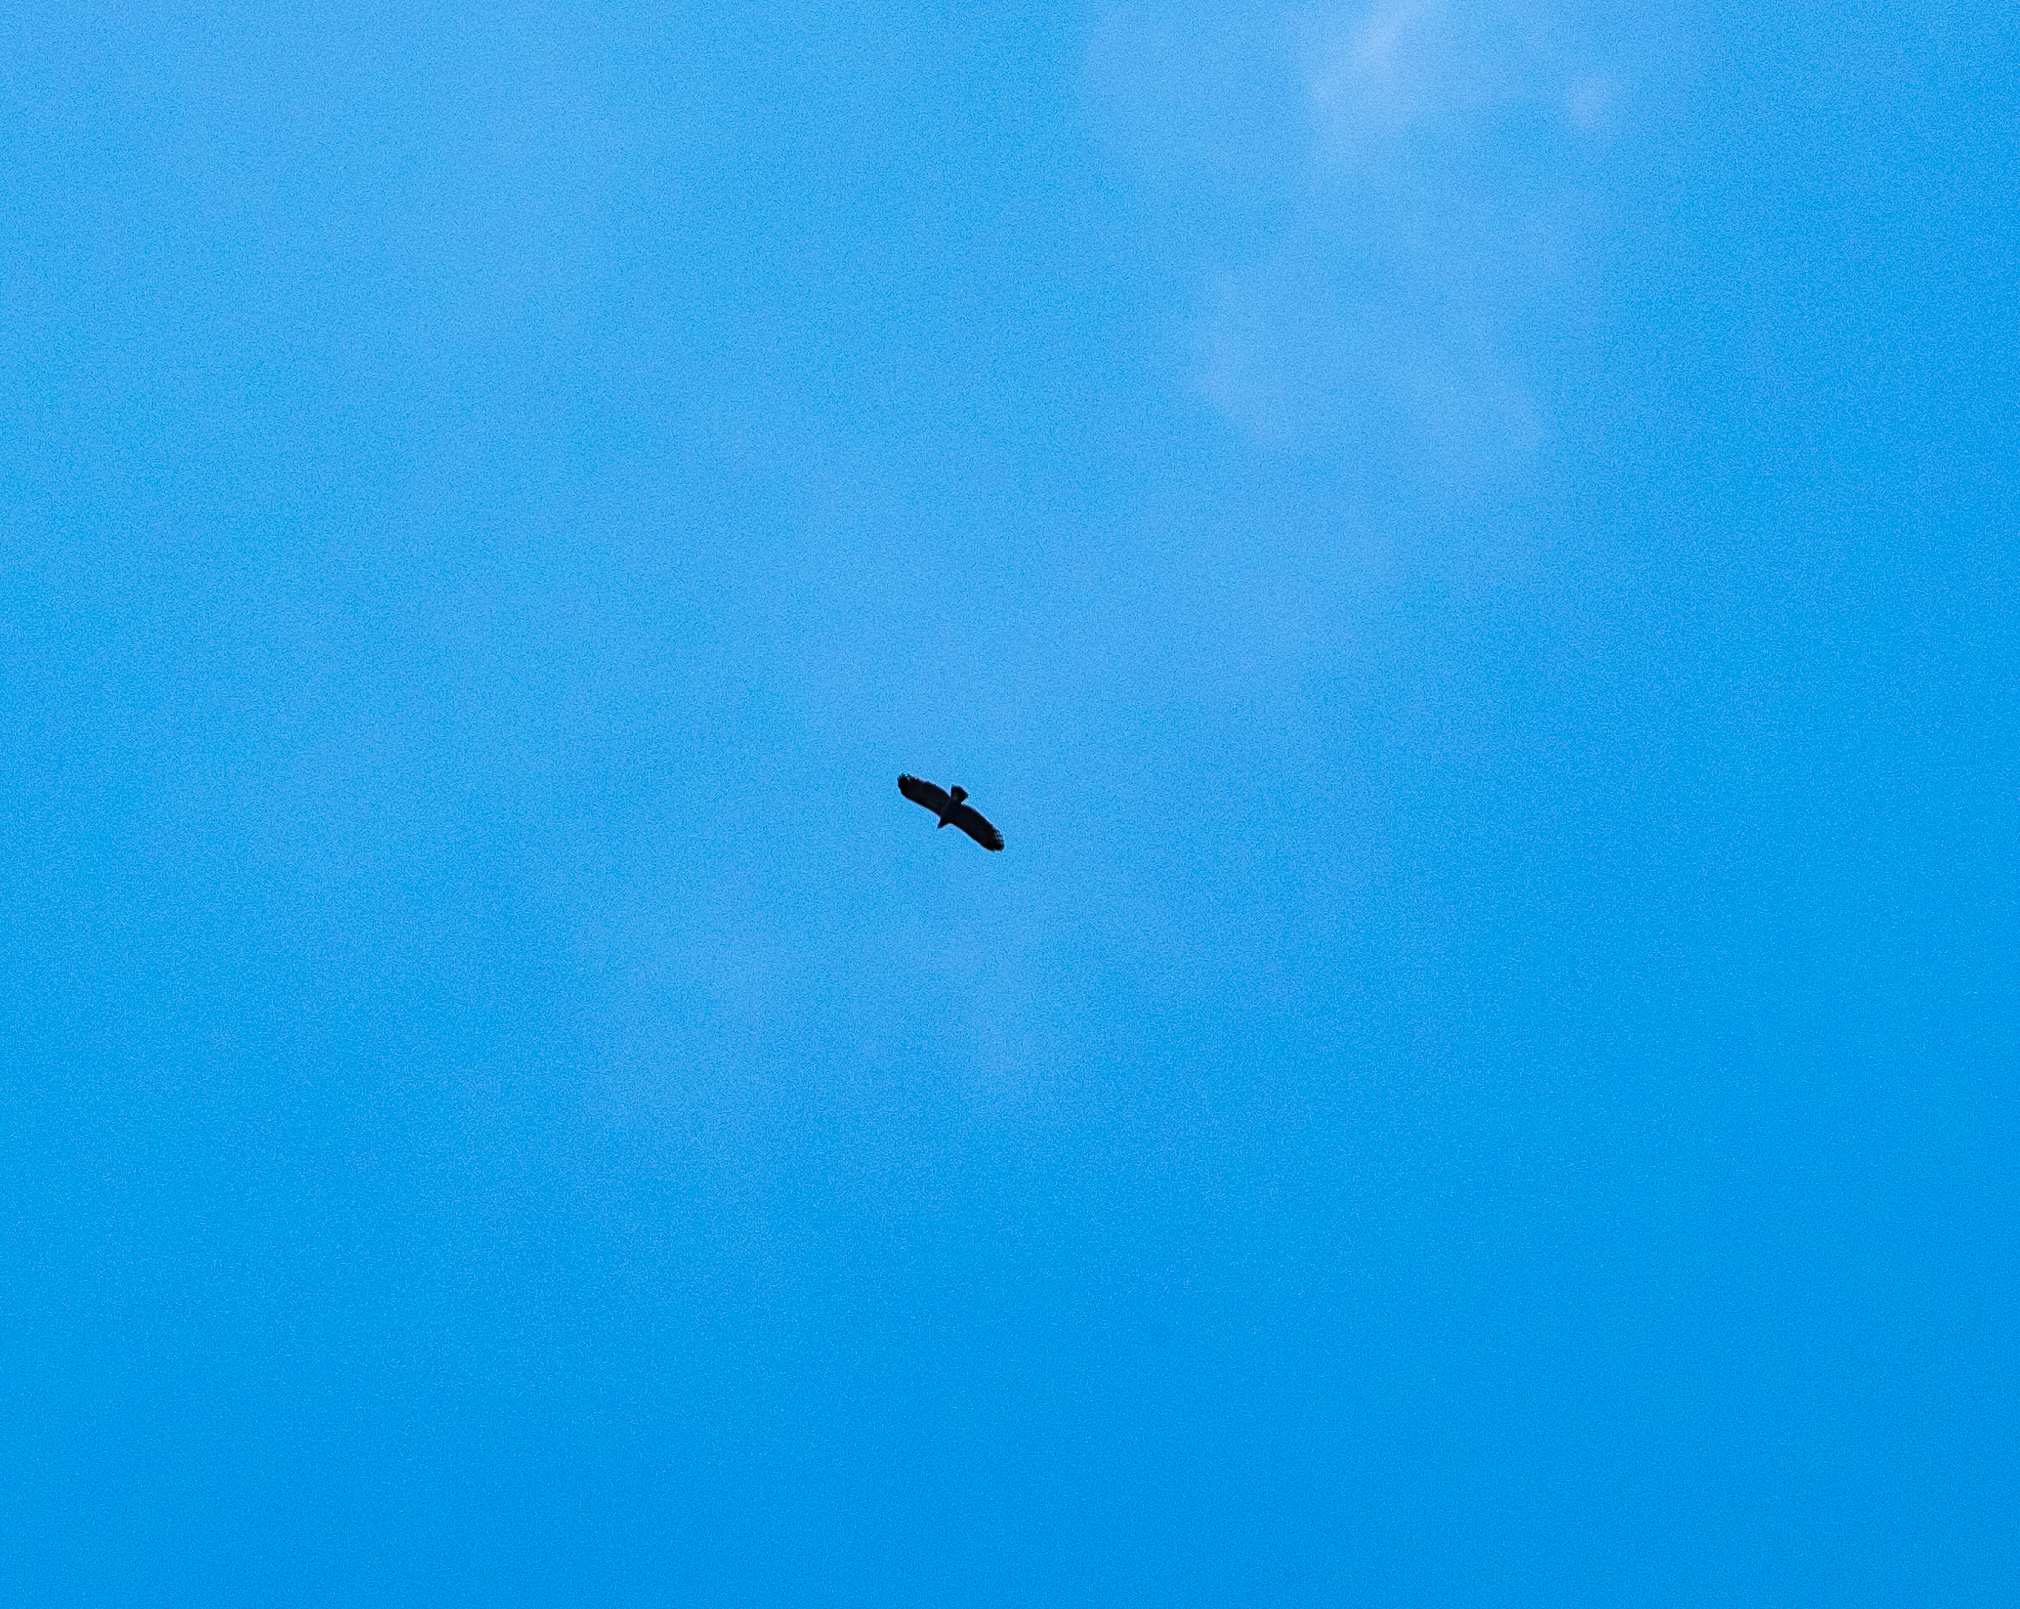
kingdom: Animalia
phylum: Chordata
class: Aves
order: Accipitriformes
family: Accipitridae
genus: Aquila
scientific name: Aquila clanga
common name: Greater spotted eagle
